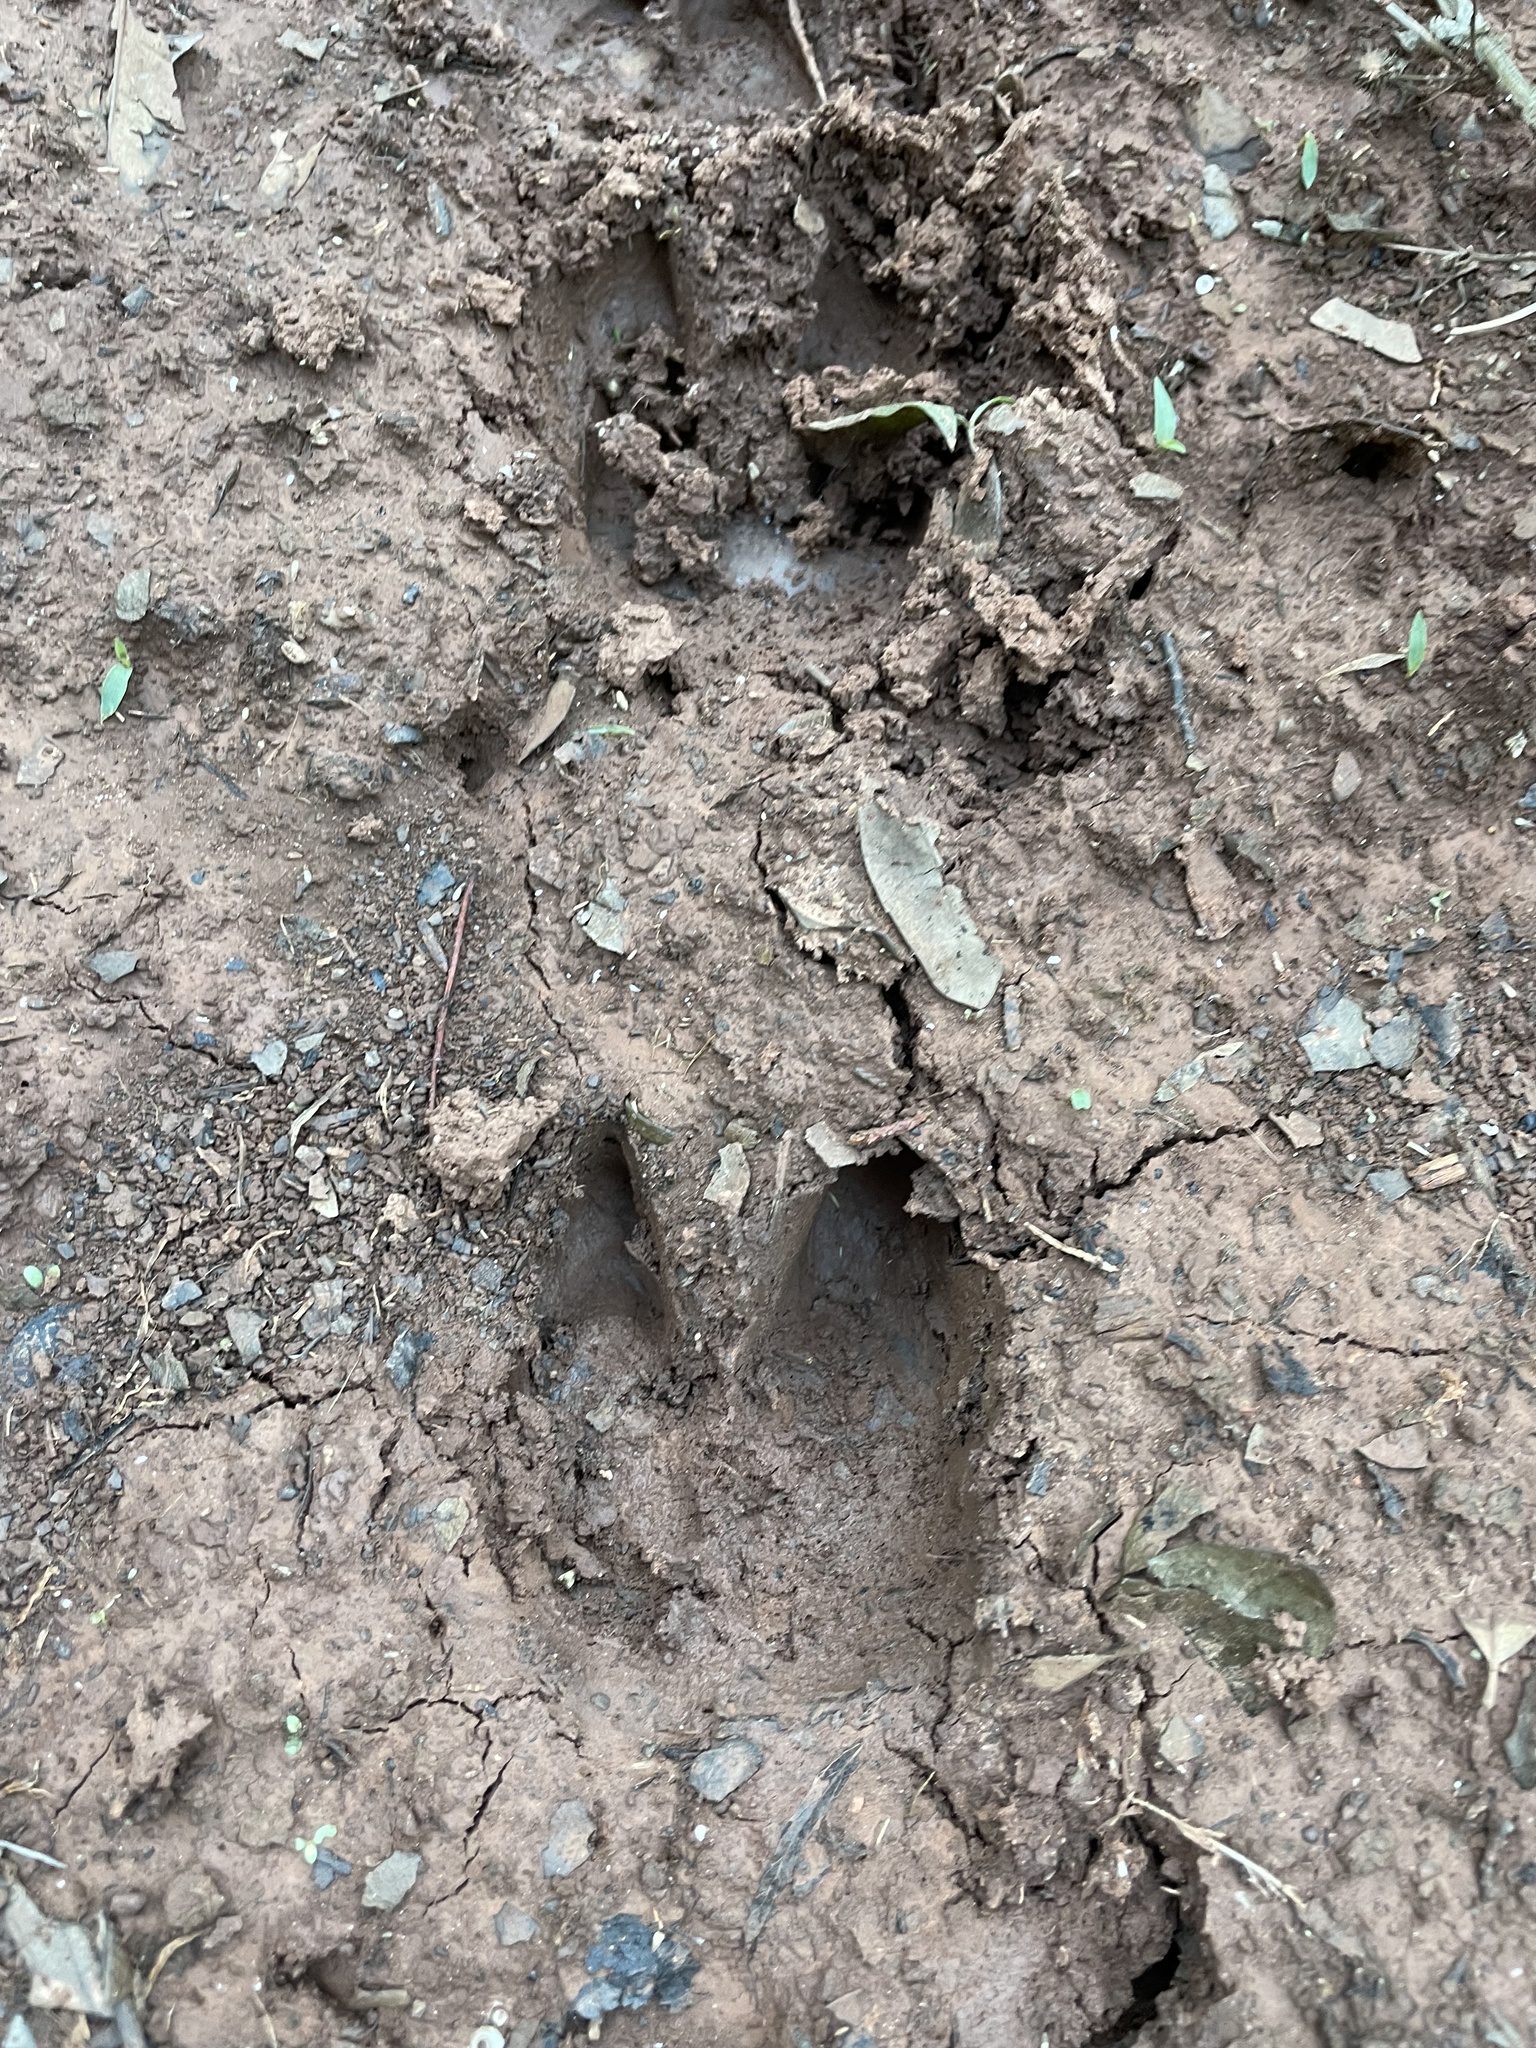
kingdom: Animalia
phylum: Chordata
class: Mammalia
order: Artiodactyla
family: Cervidae
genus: Odocoileus
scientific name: Odocoileus virginianus
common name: White-tailed deer
